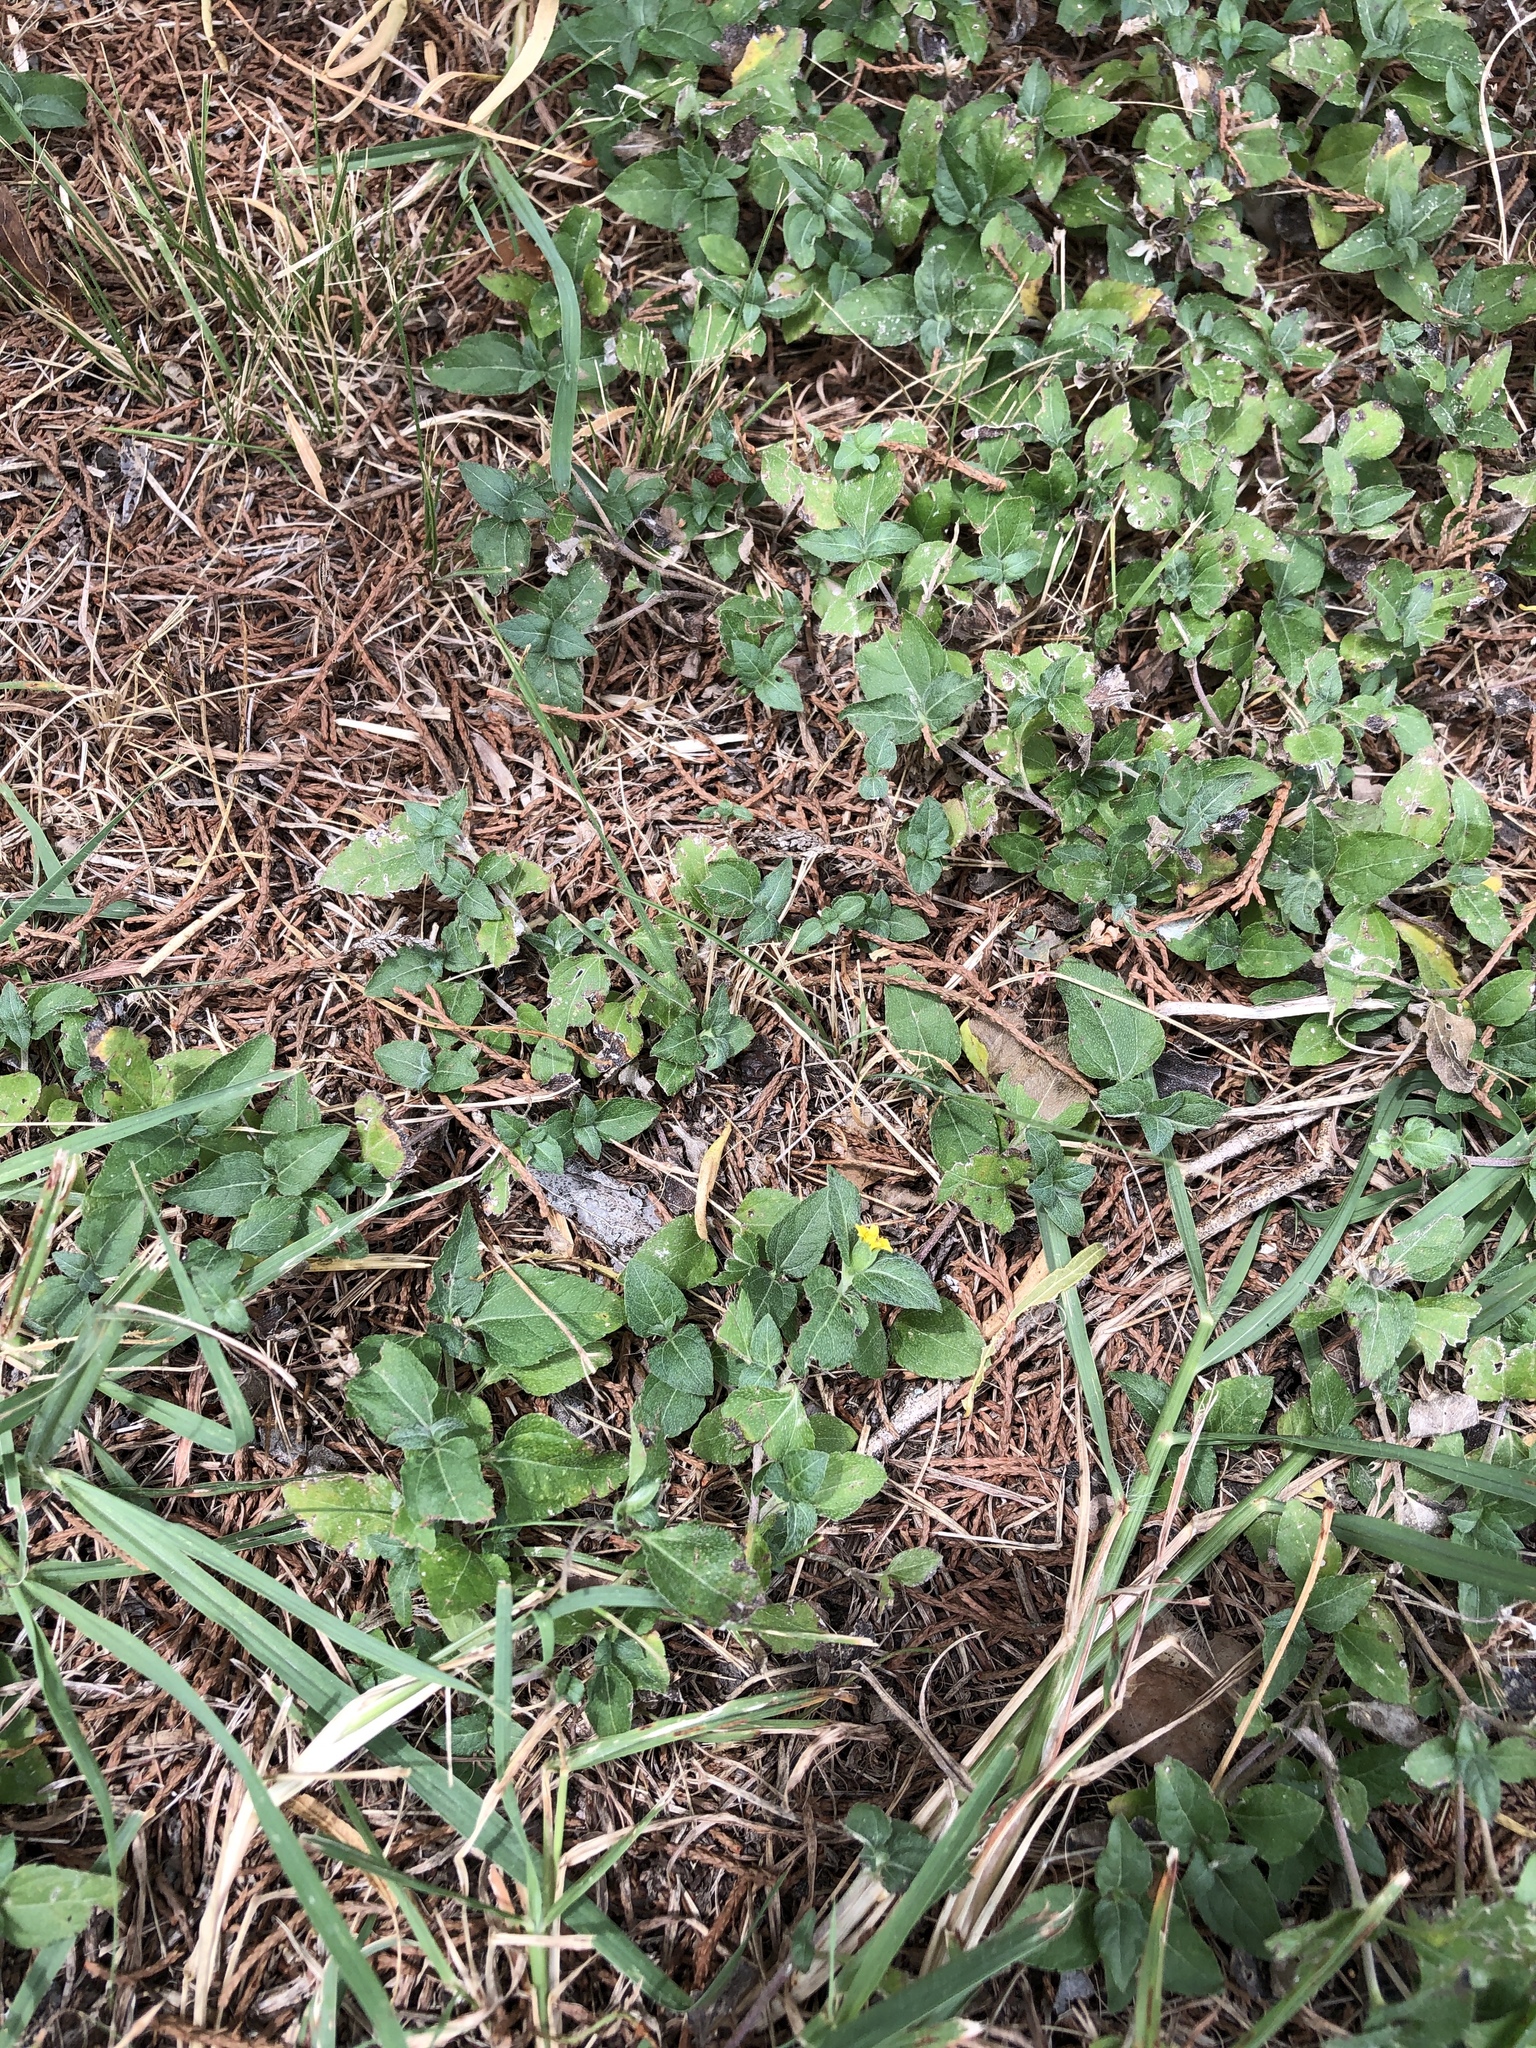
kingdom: Plantae
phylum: Tracheophyta
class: Magnoliopsida
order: Asterales
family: Asteraceae
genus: Calyptocarpus
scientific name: Calyptocarpus vialis
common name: Straggler daisy
